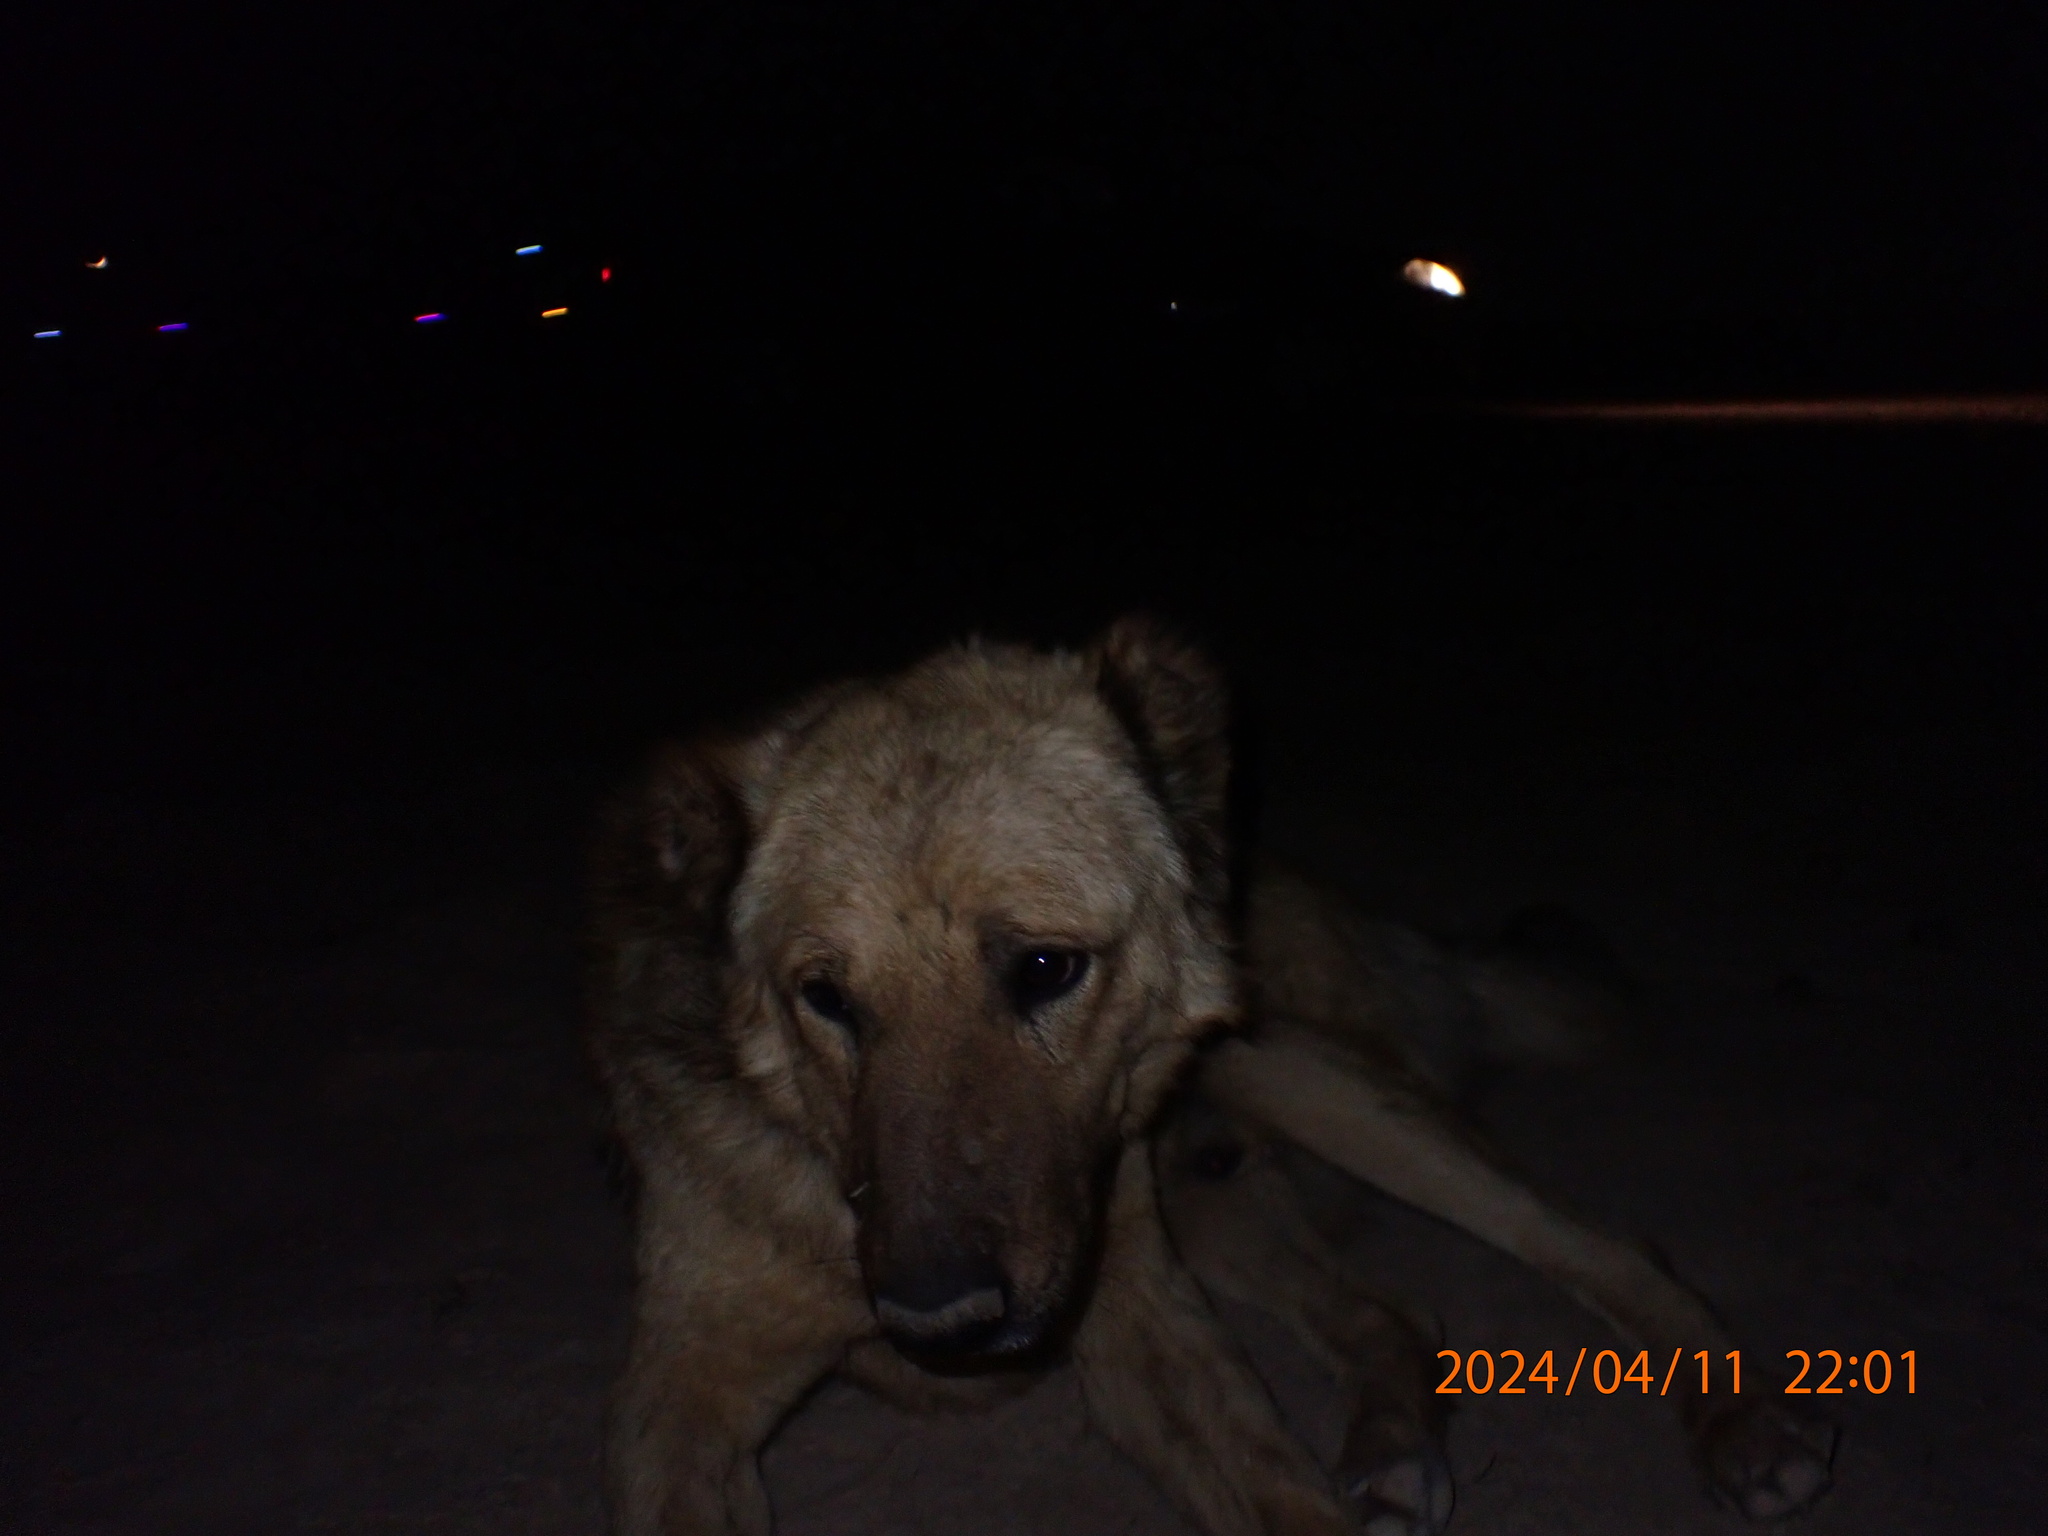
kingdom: Animalia
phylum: Chordata
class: Mammalia
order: Carnivora
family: Canidae
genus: Canis
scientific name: Canis lupus
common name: Gray wolf
